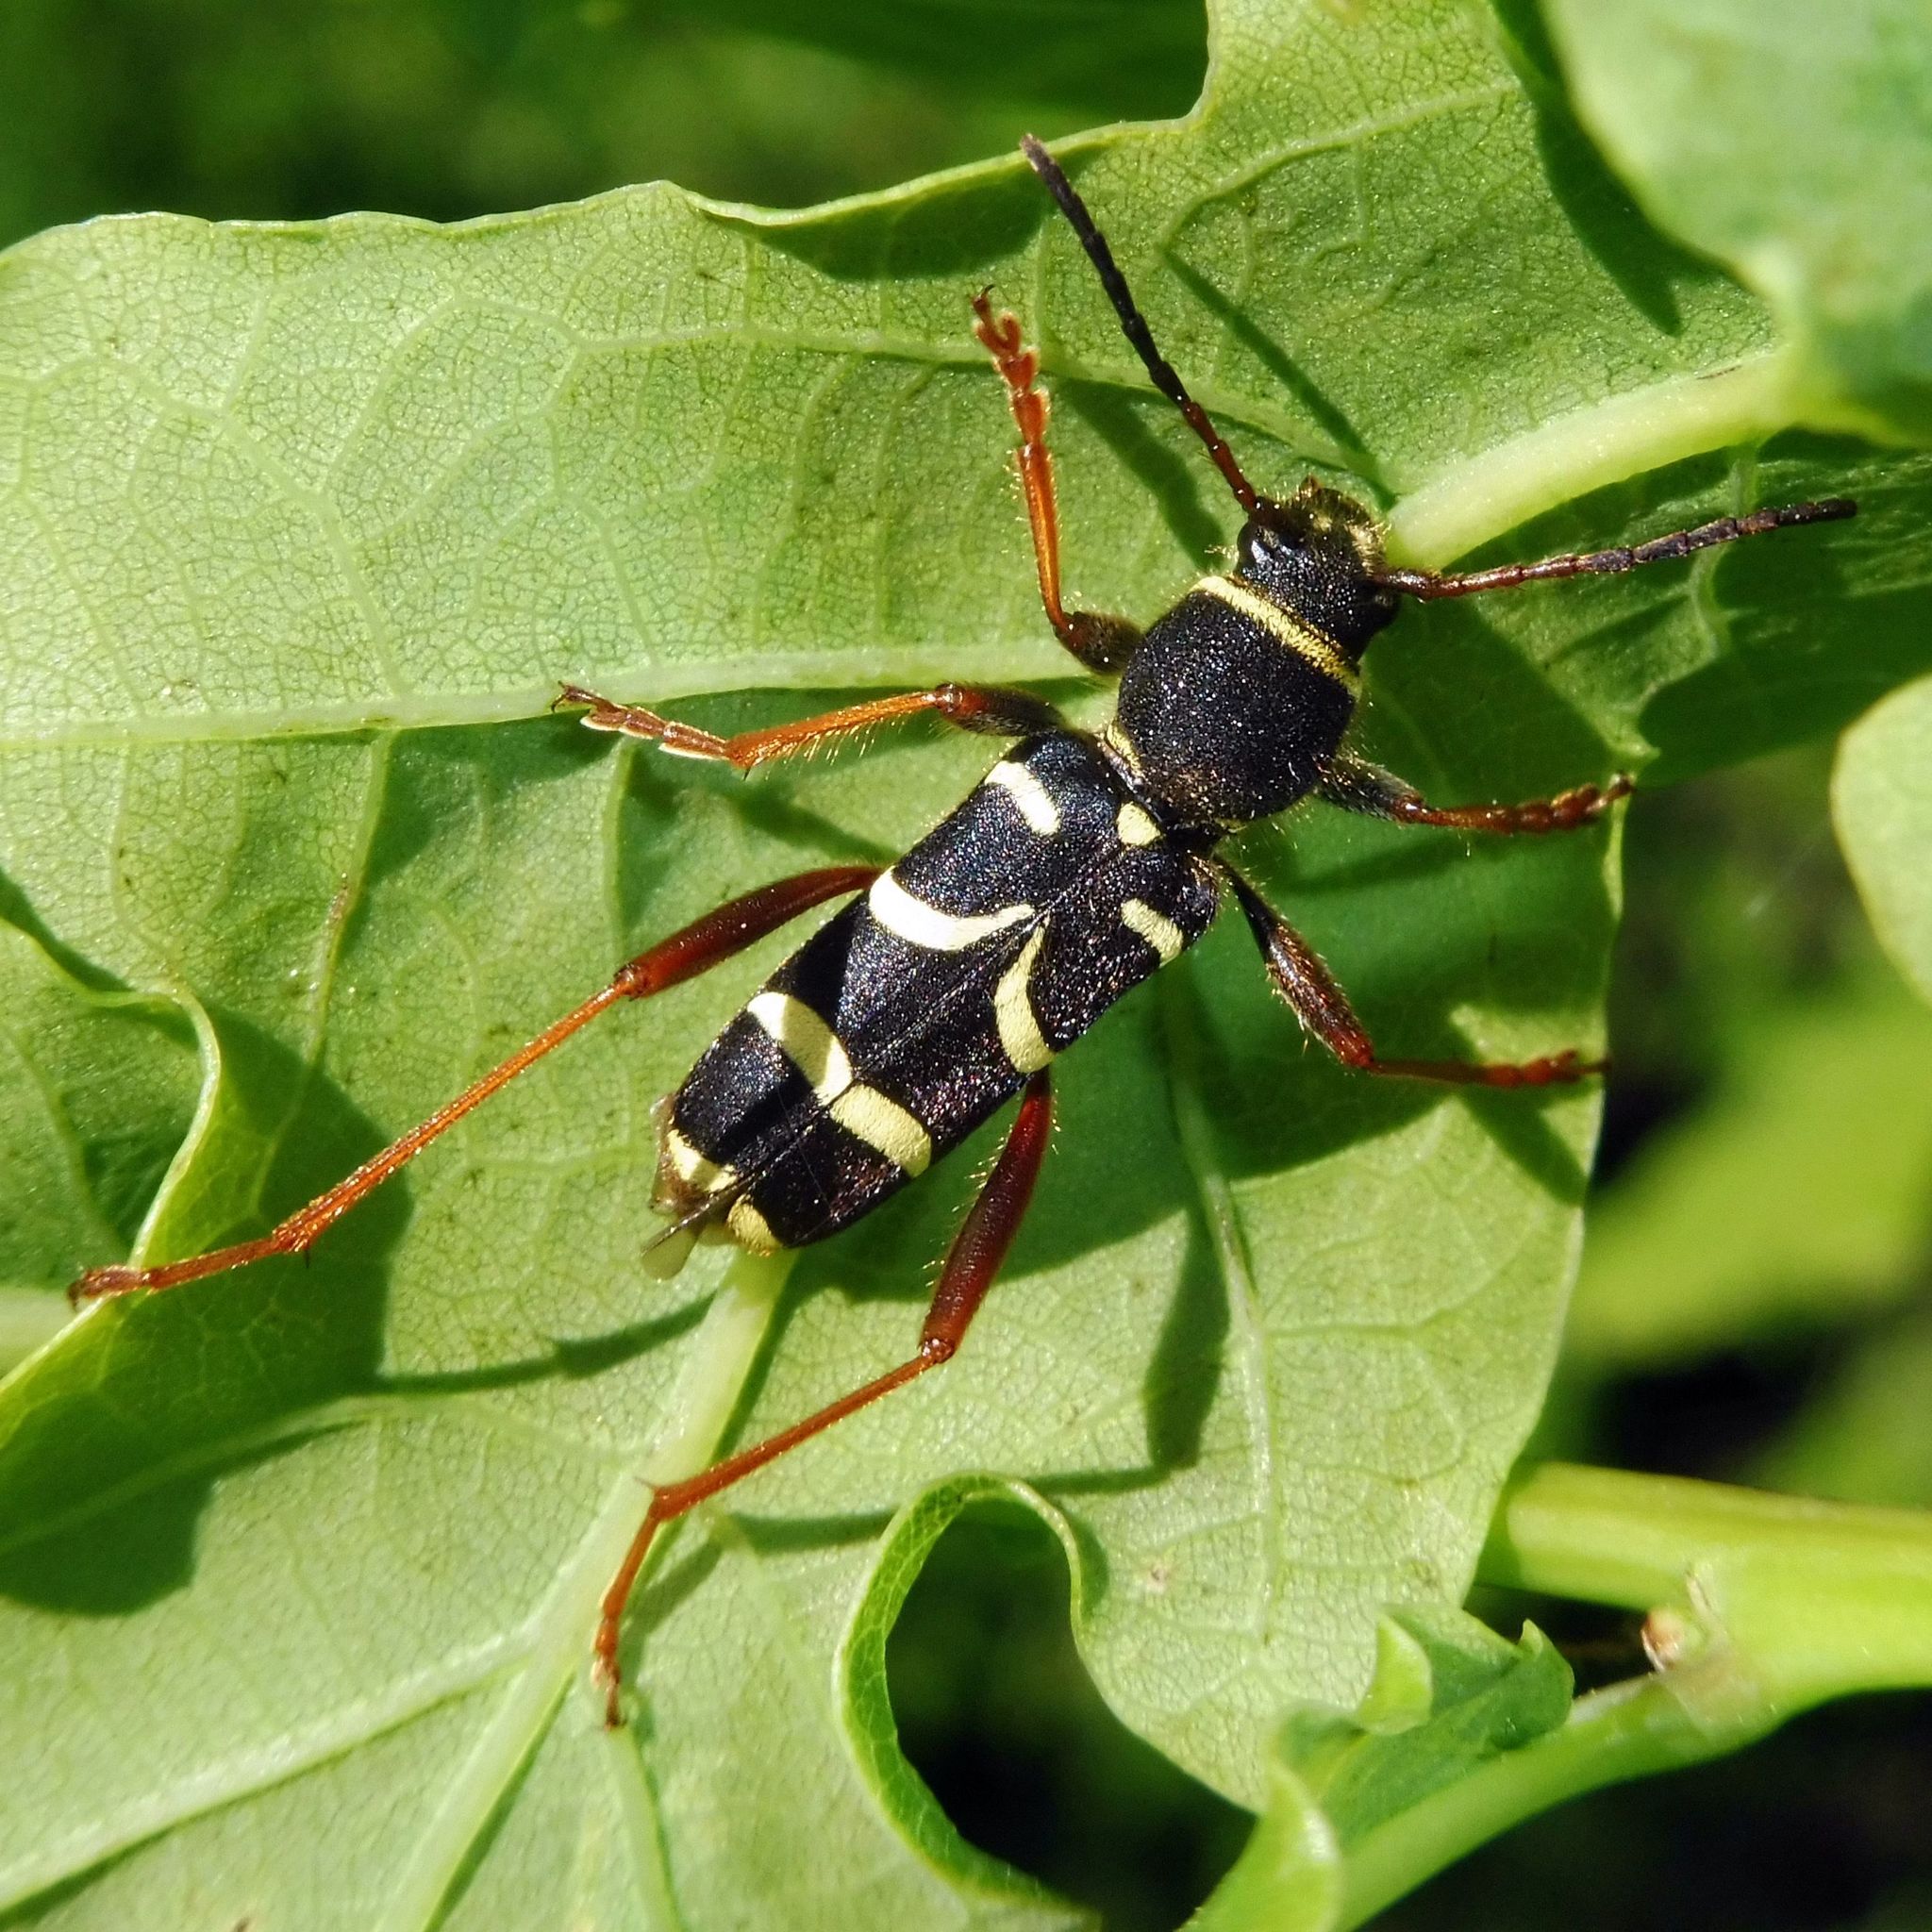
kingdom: Animalia
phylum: Arthropoda
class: Insecta
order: Coleoptera
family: Cerambycidae
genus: Clytus
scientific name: Clytus arietis
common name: Wasp beetle
